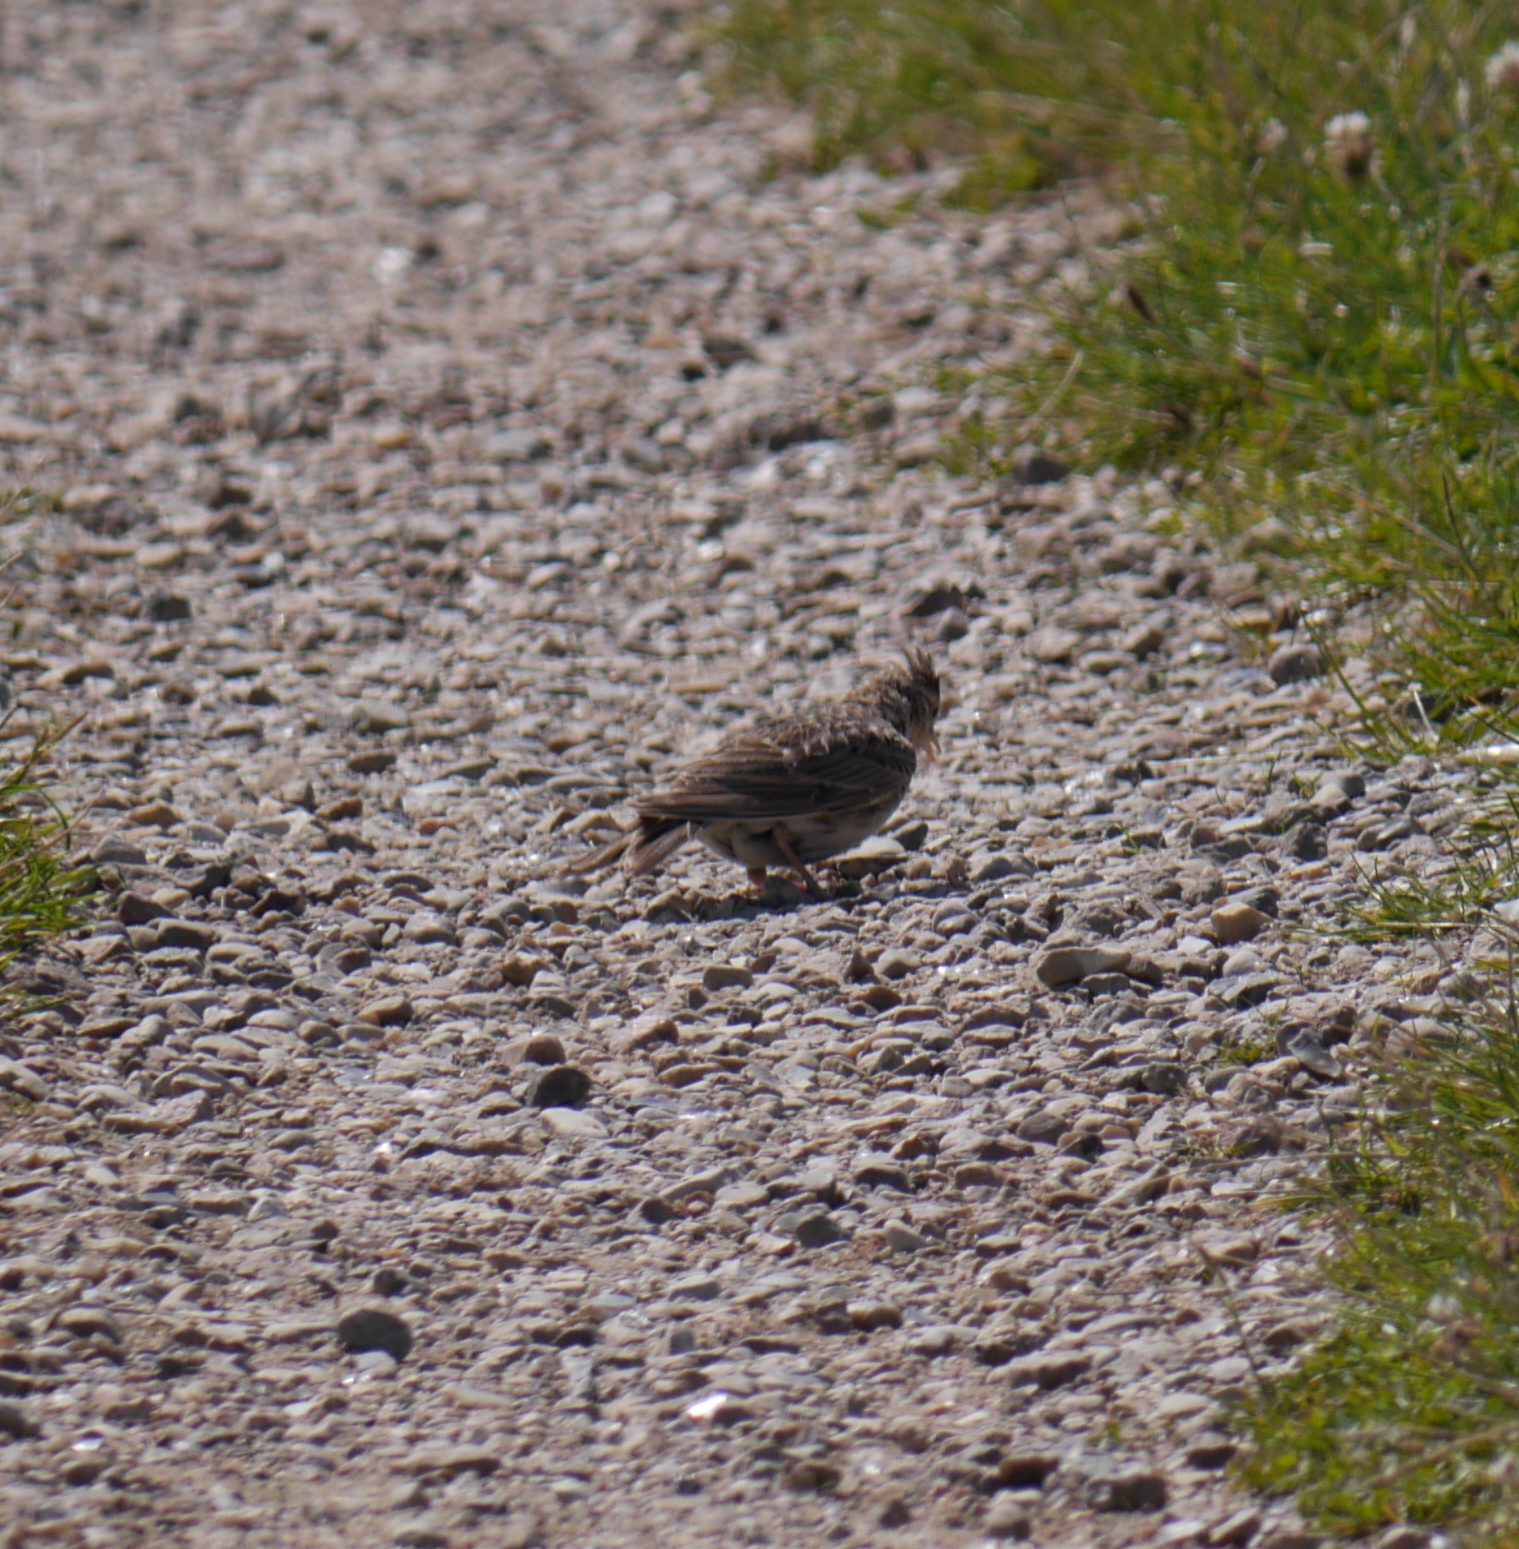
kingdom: Animalia
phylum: Chordata
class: Aves
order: Passeriformes
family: Alaudidae
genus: Alauda
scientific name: Alauda arvensis
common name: Eurasian skylark
